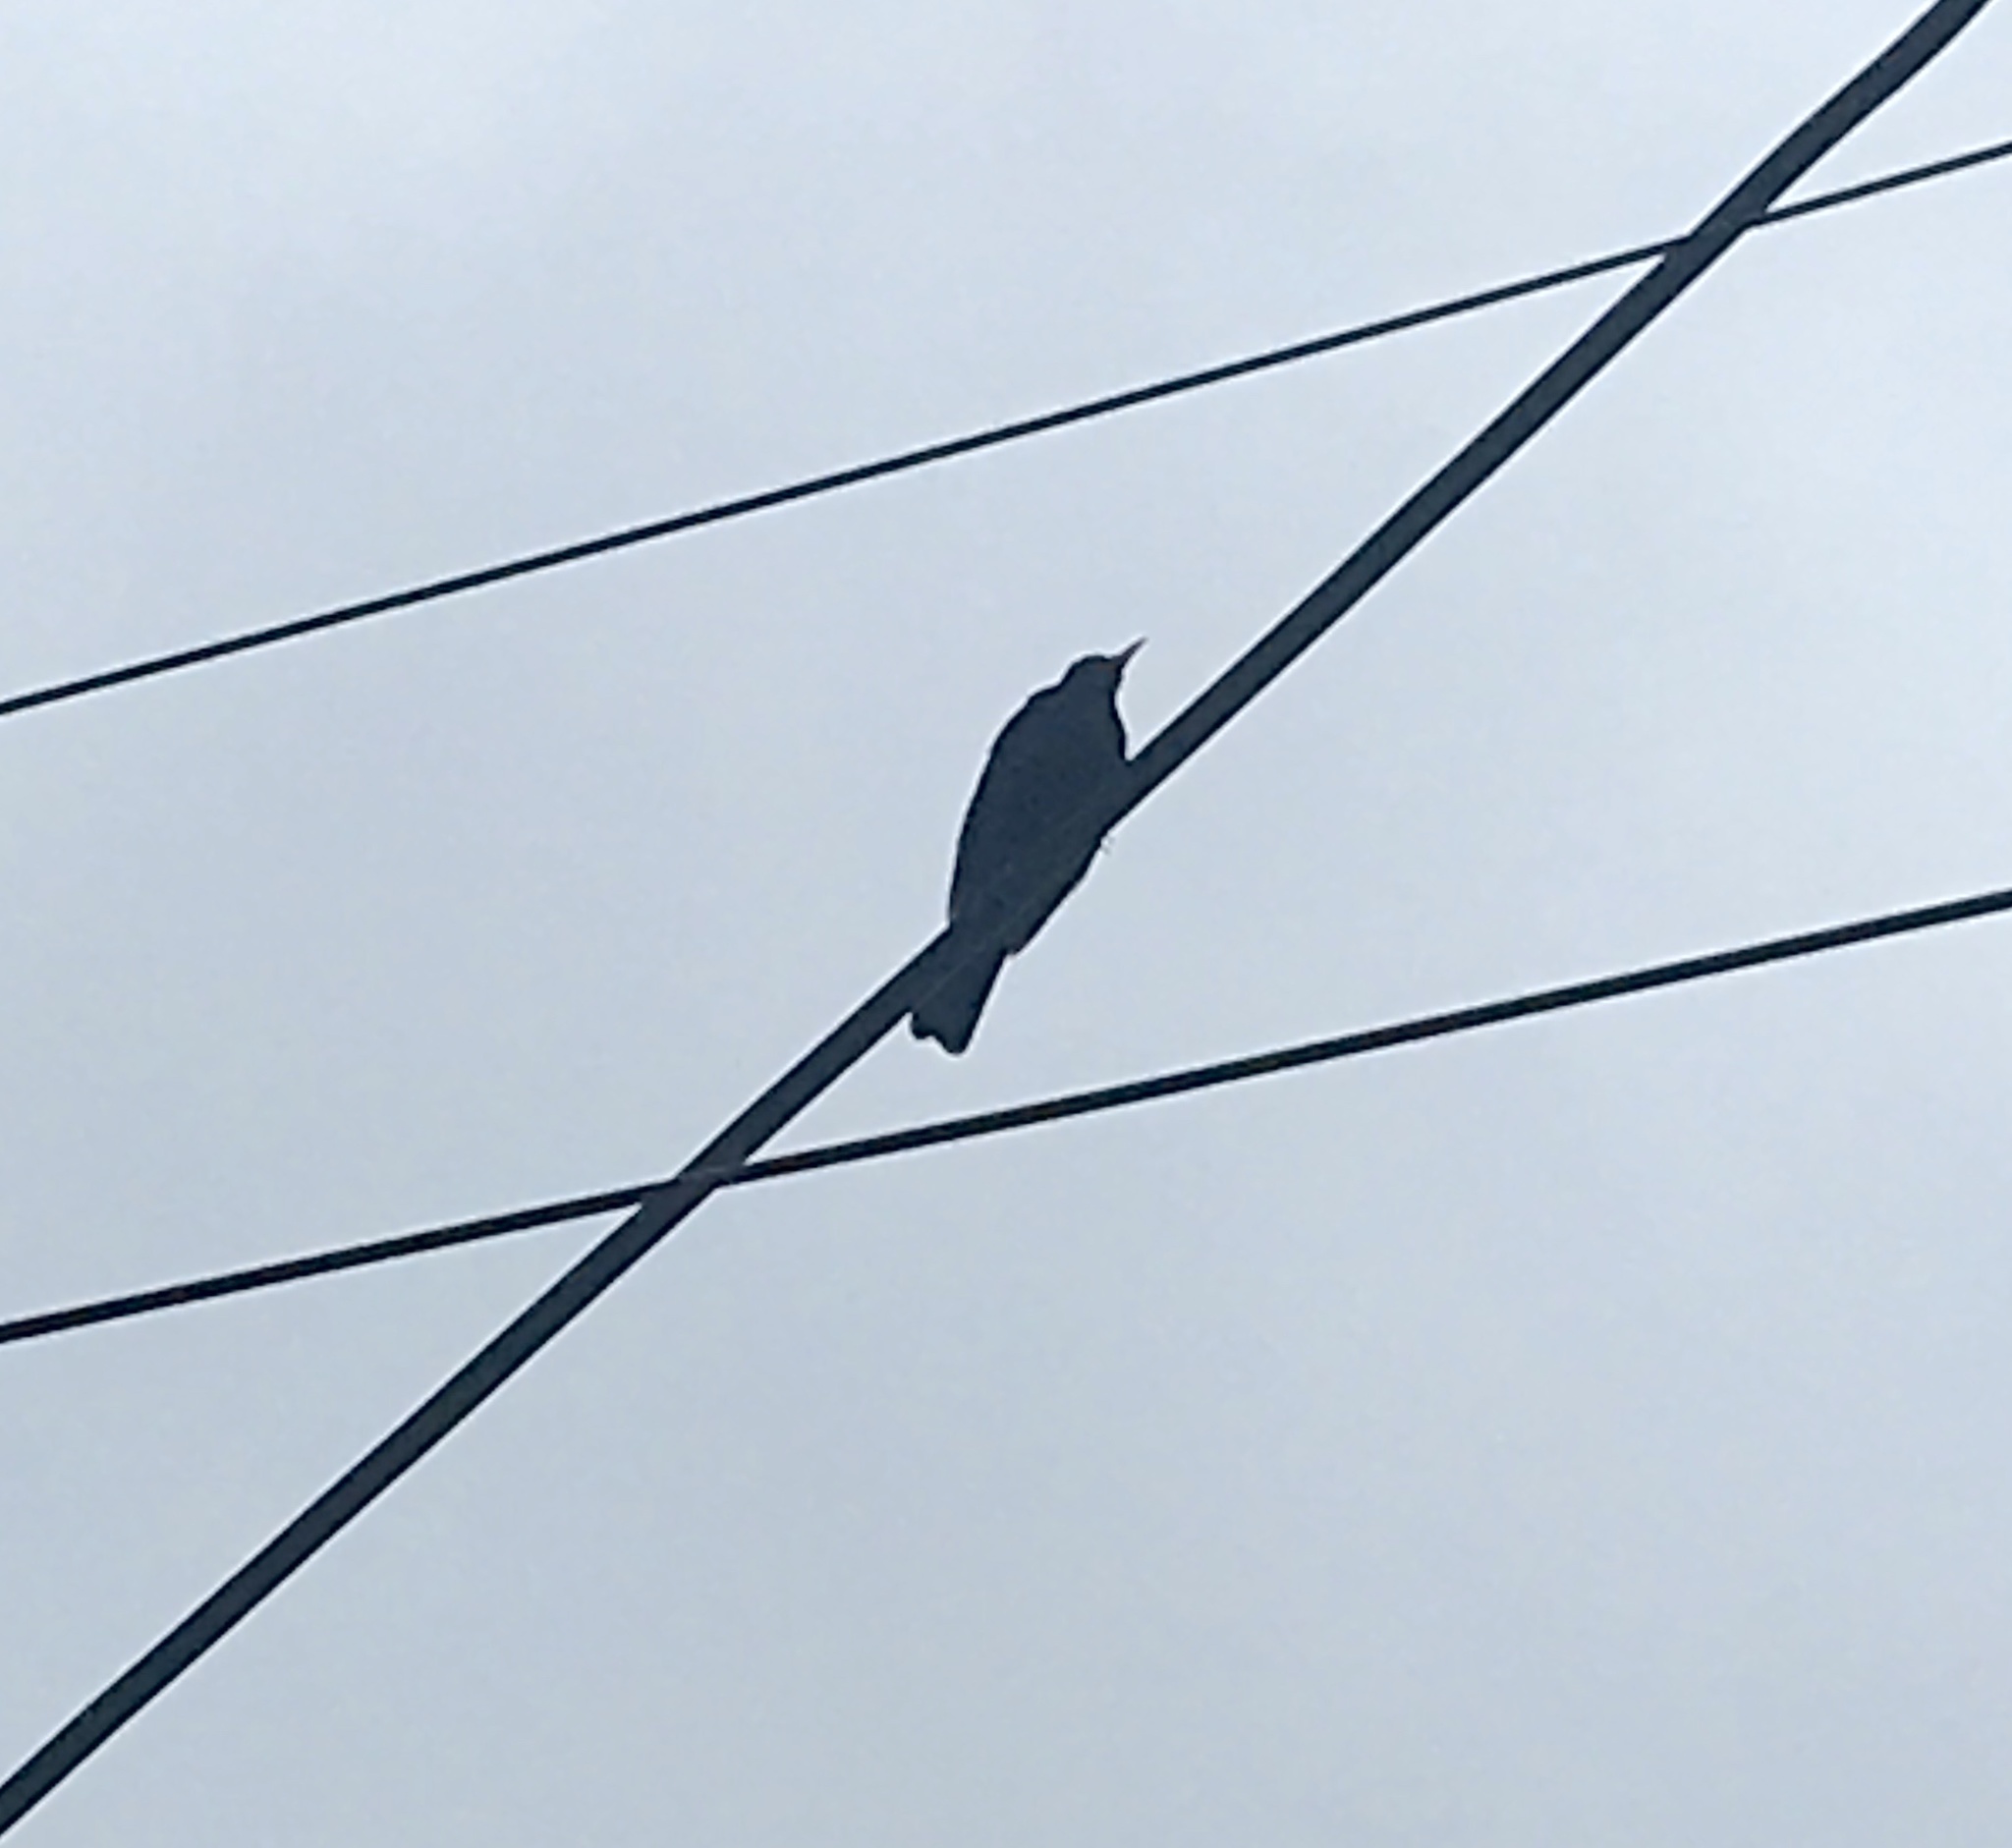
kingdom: Animalia
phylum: Chordata
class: Aves
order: Passeriformes
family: Turdidae
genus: Turdus
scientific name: Turdus merula
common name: Common blackbird
